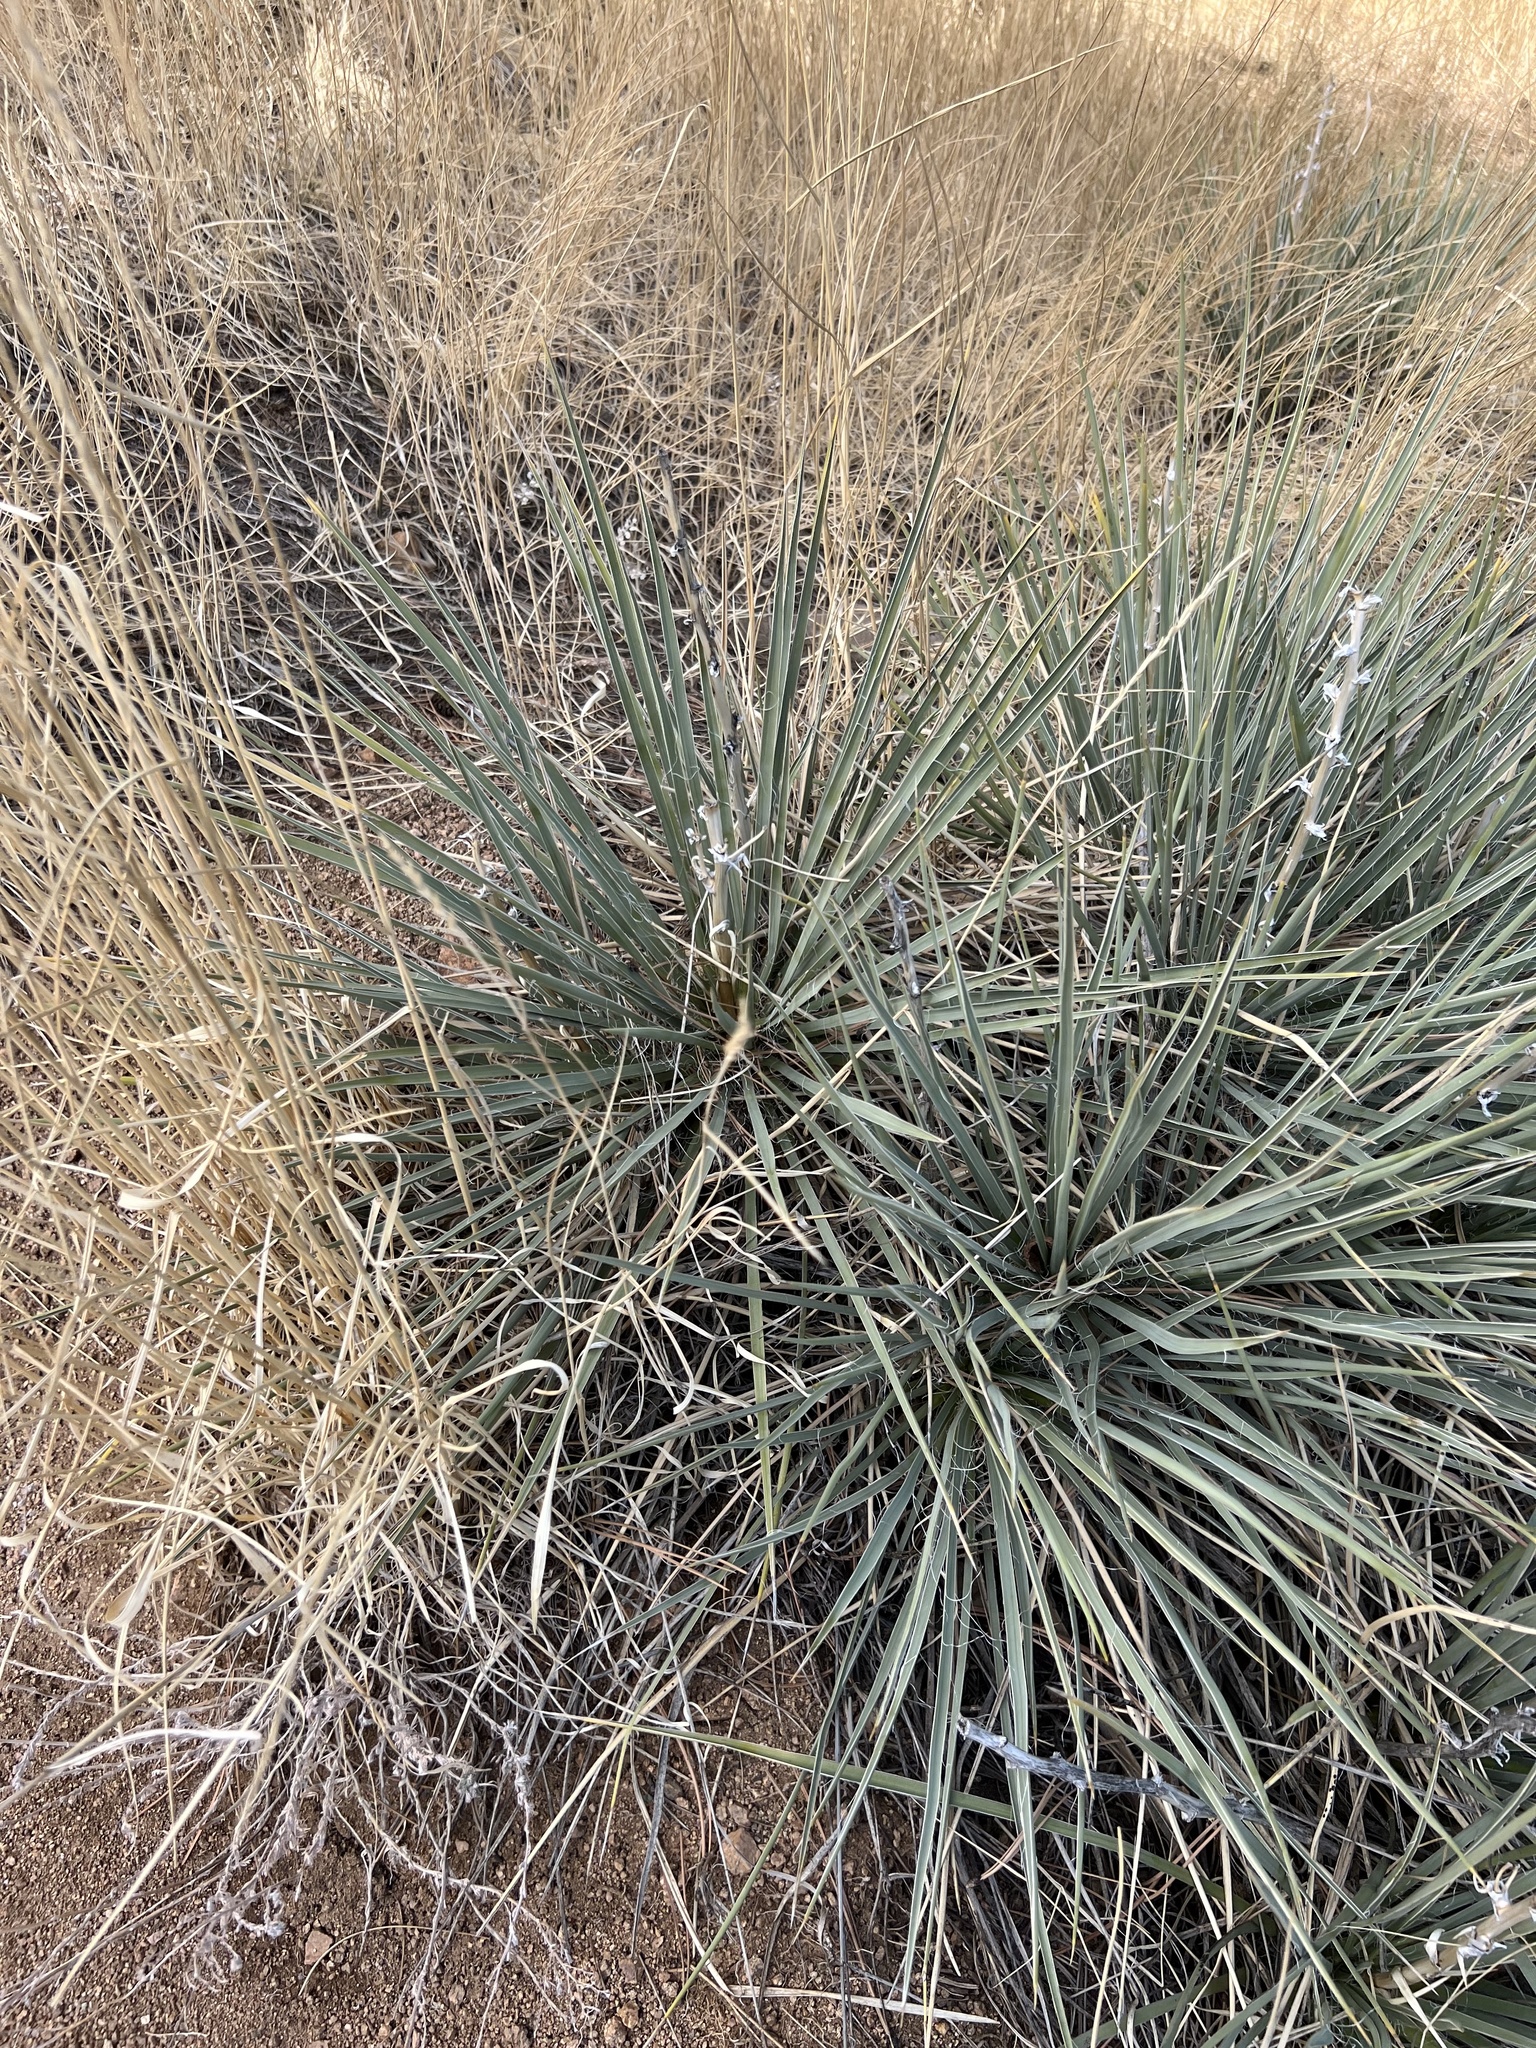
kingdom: Plantae
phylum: Tracheophyta
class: Liliopsida
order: Asparagales
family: Asparagaceae
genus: Yucca
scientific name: Yucca glauca
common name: Great plains yucca
